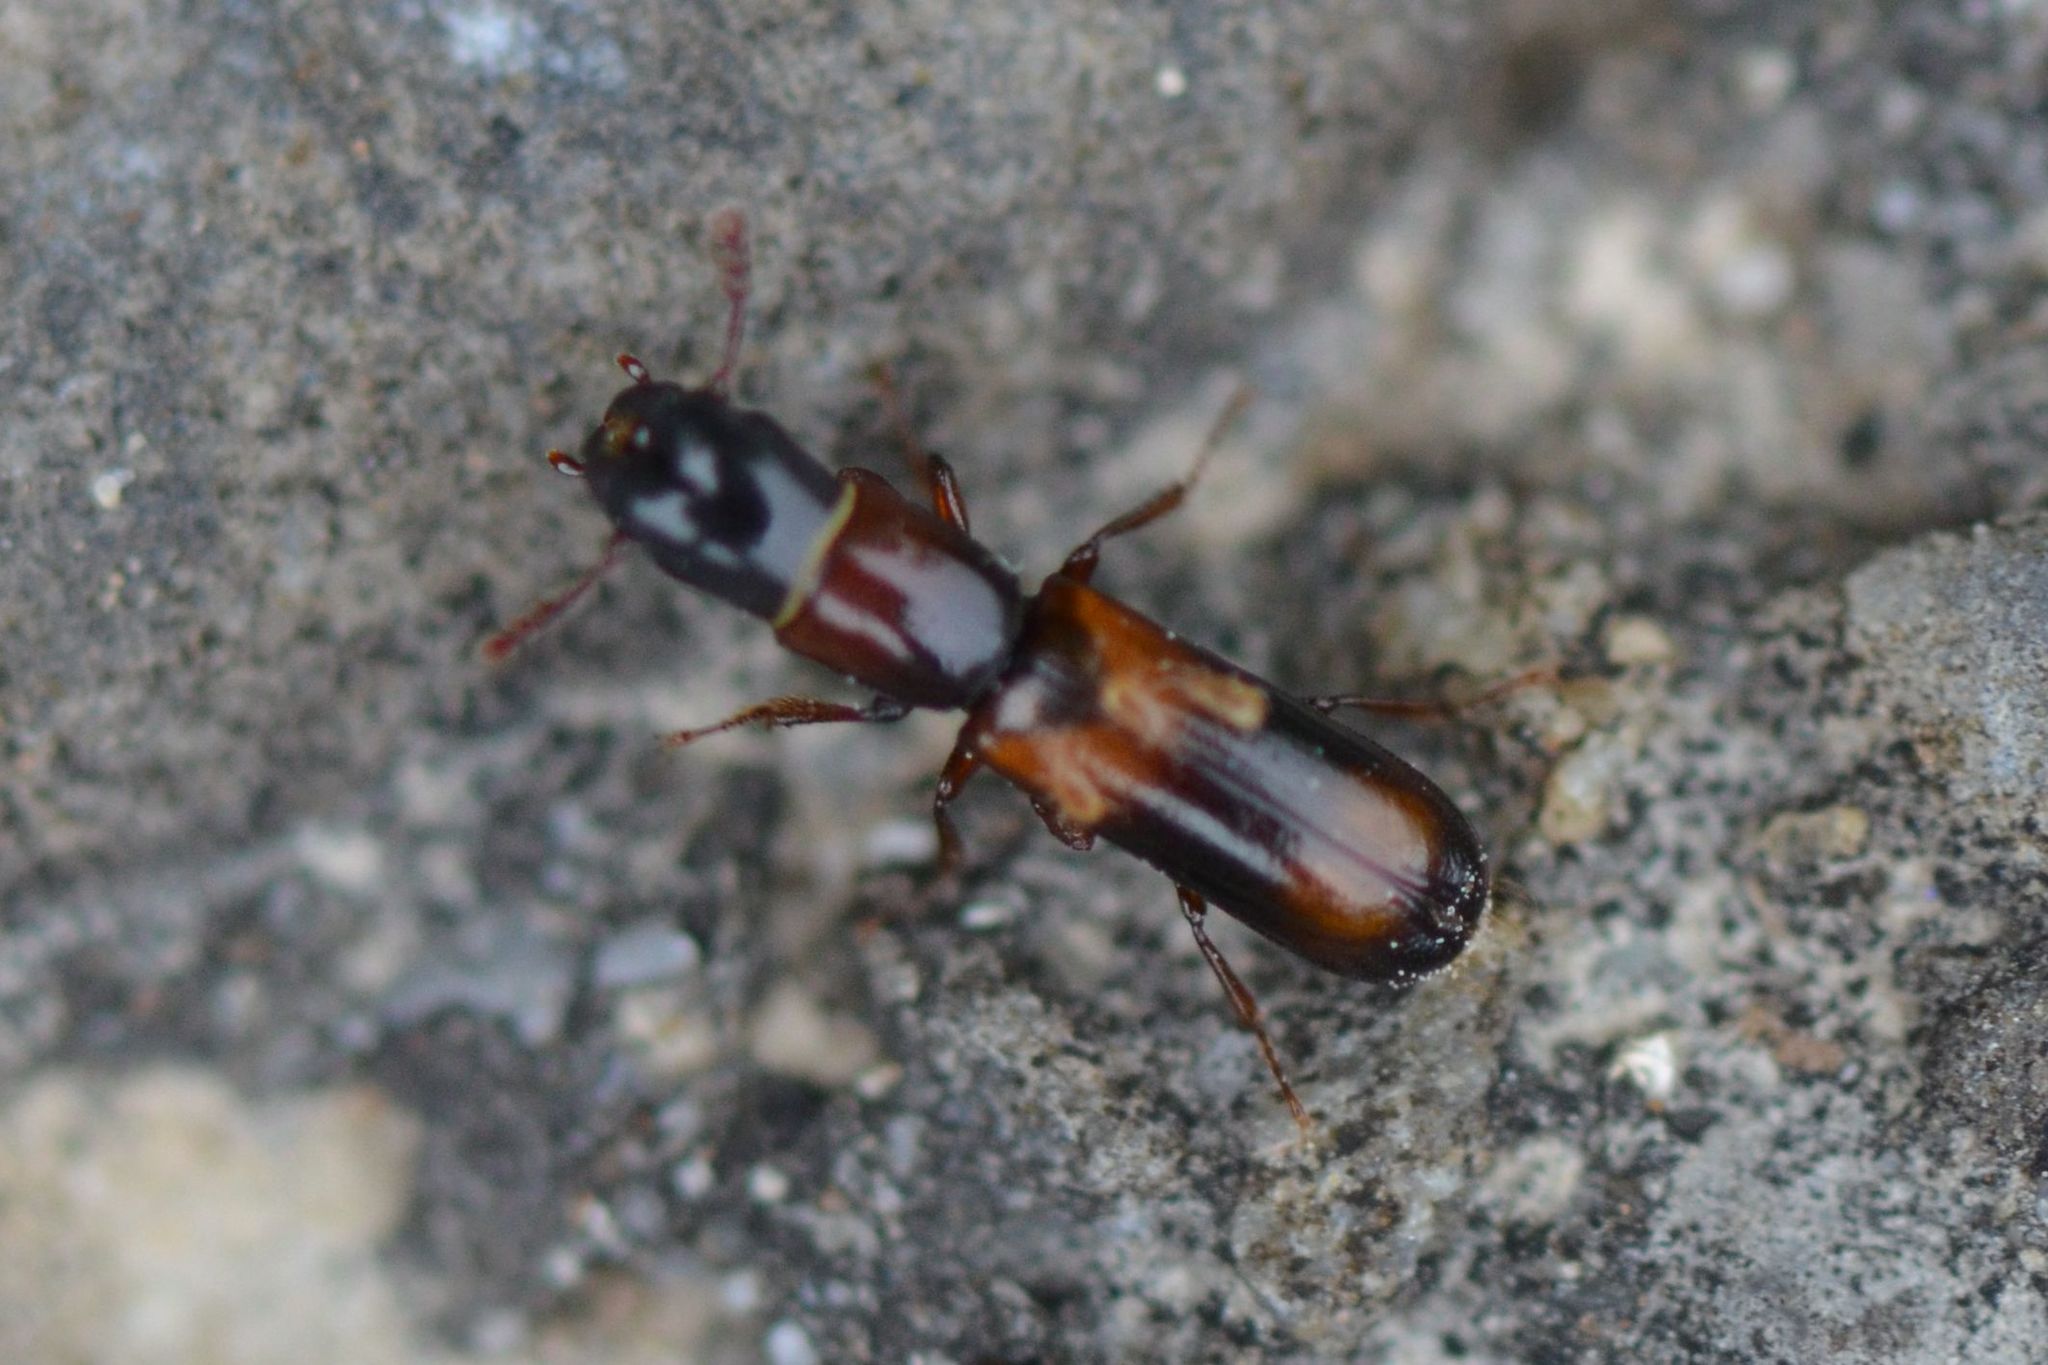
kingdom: Animalia
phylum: Arthropoda
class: Insecta
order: Coleoptera
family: Trogossitidae
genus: Nemozoma
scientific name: Nemozoma caucasicum
